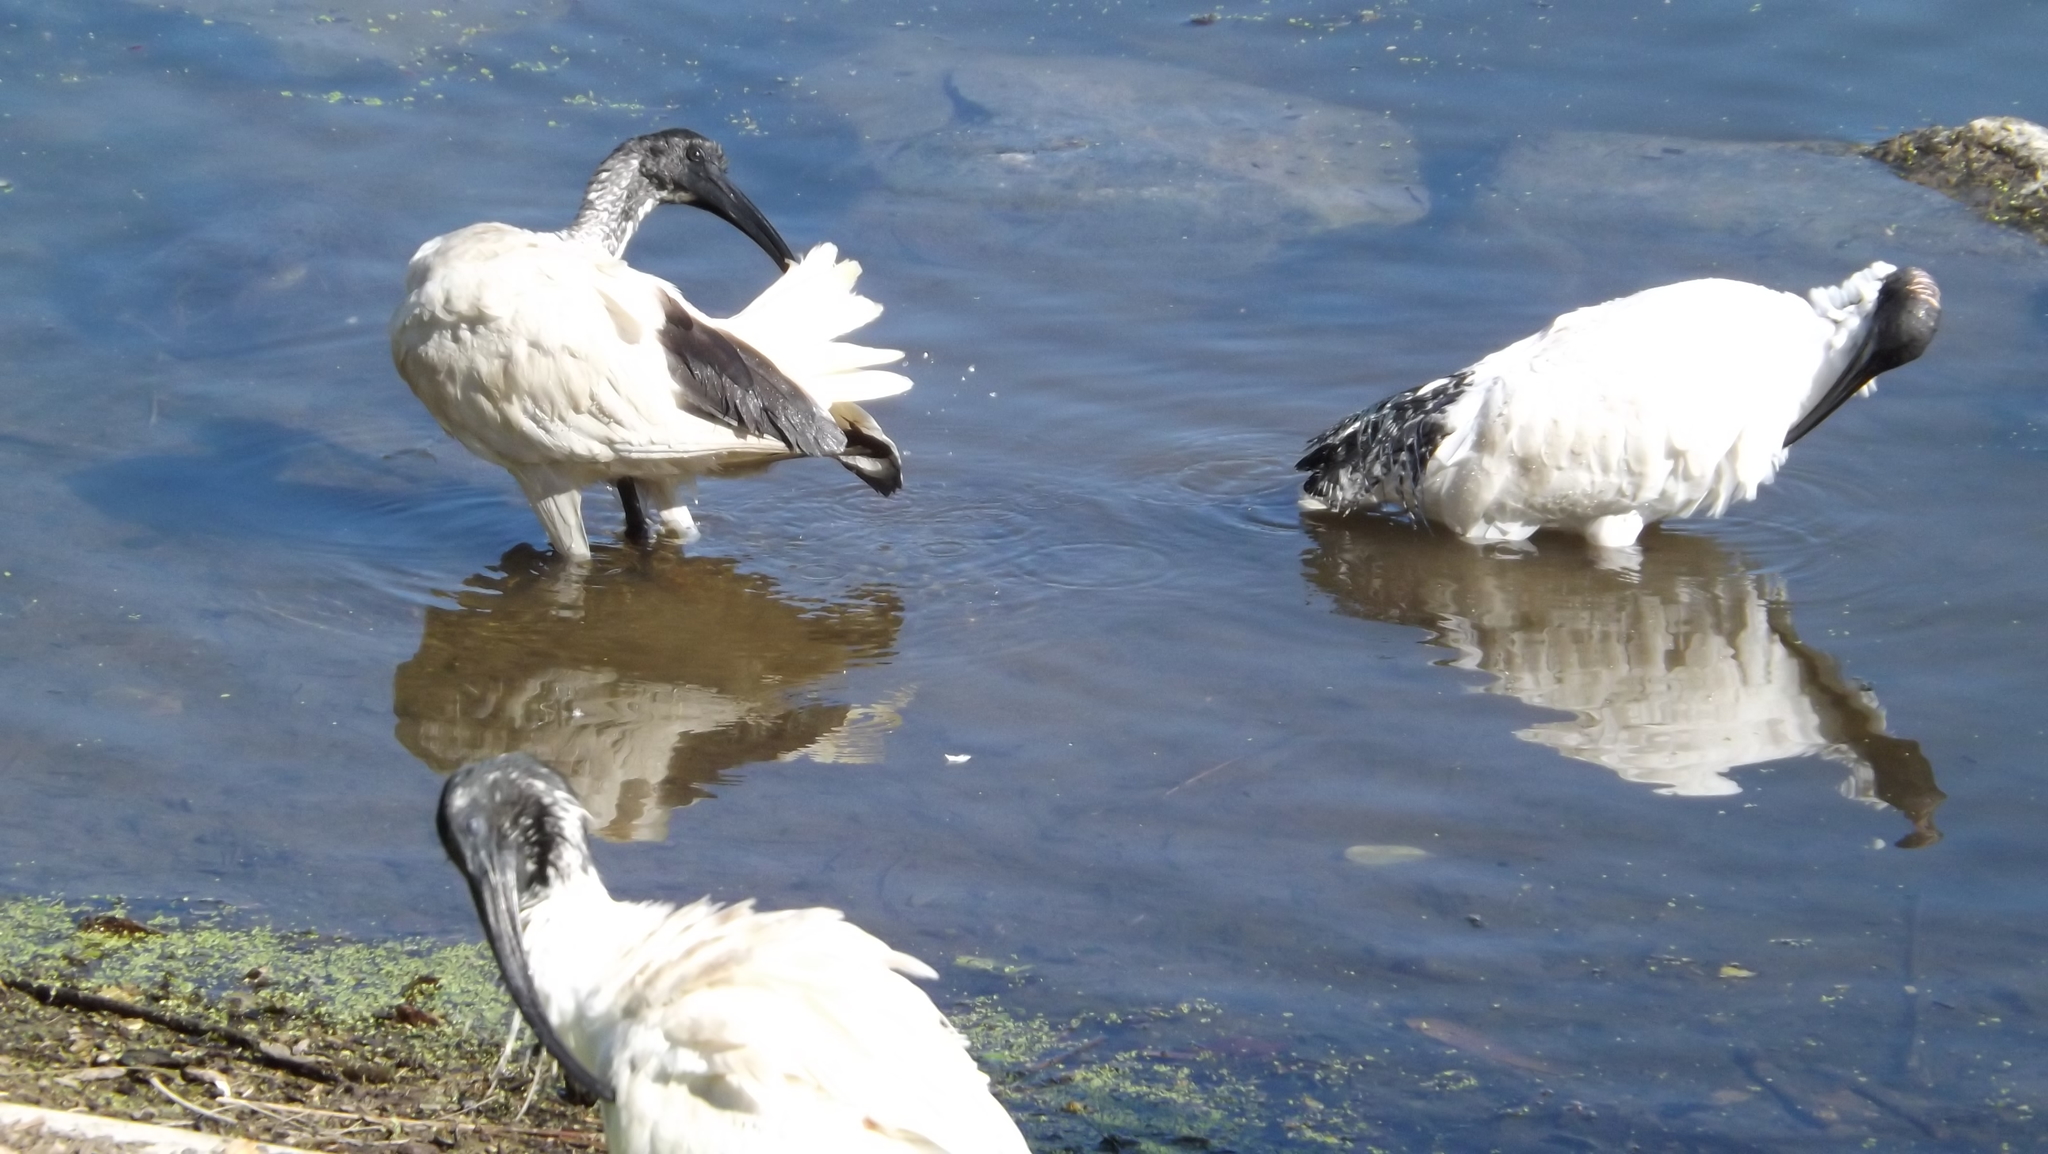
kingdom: Animalia
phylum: Chordata
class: Aves
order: Pelecaniformes
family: Threskiornithidae
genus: Threskiornis
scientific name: Threskiornis molucca
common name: Australian white ibis
